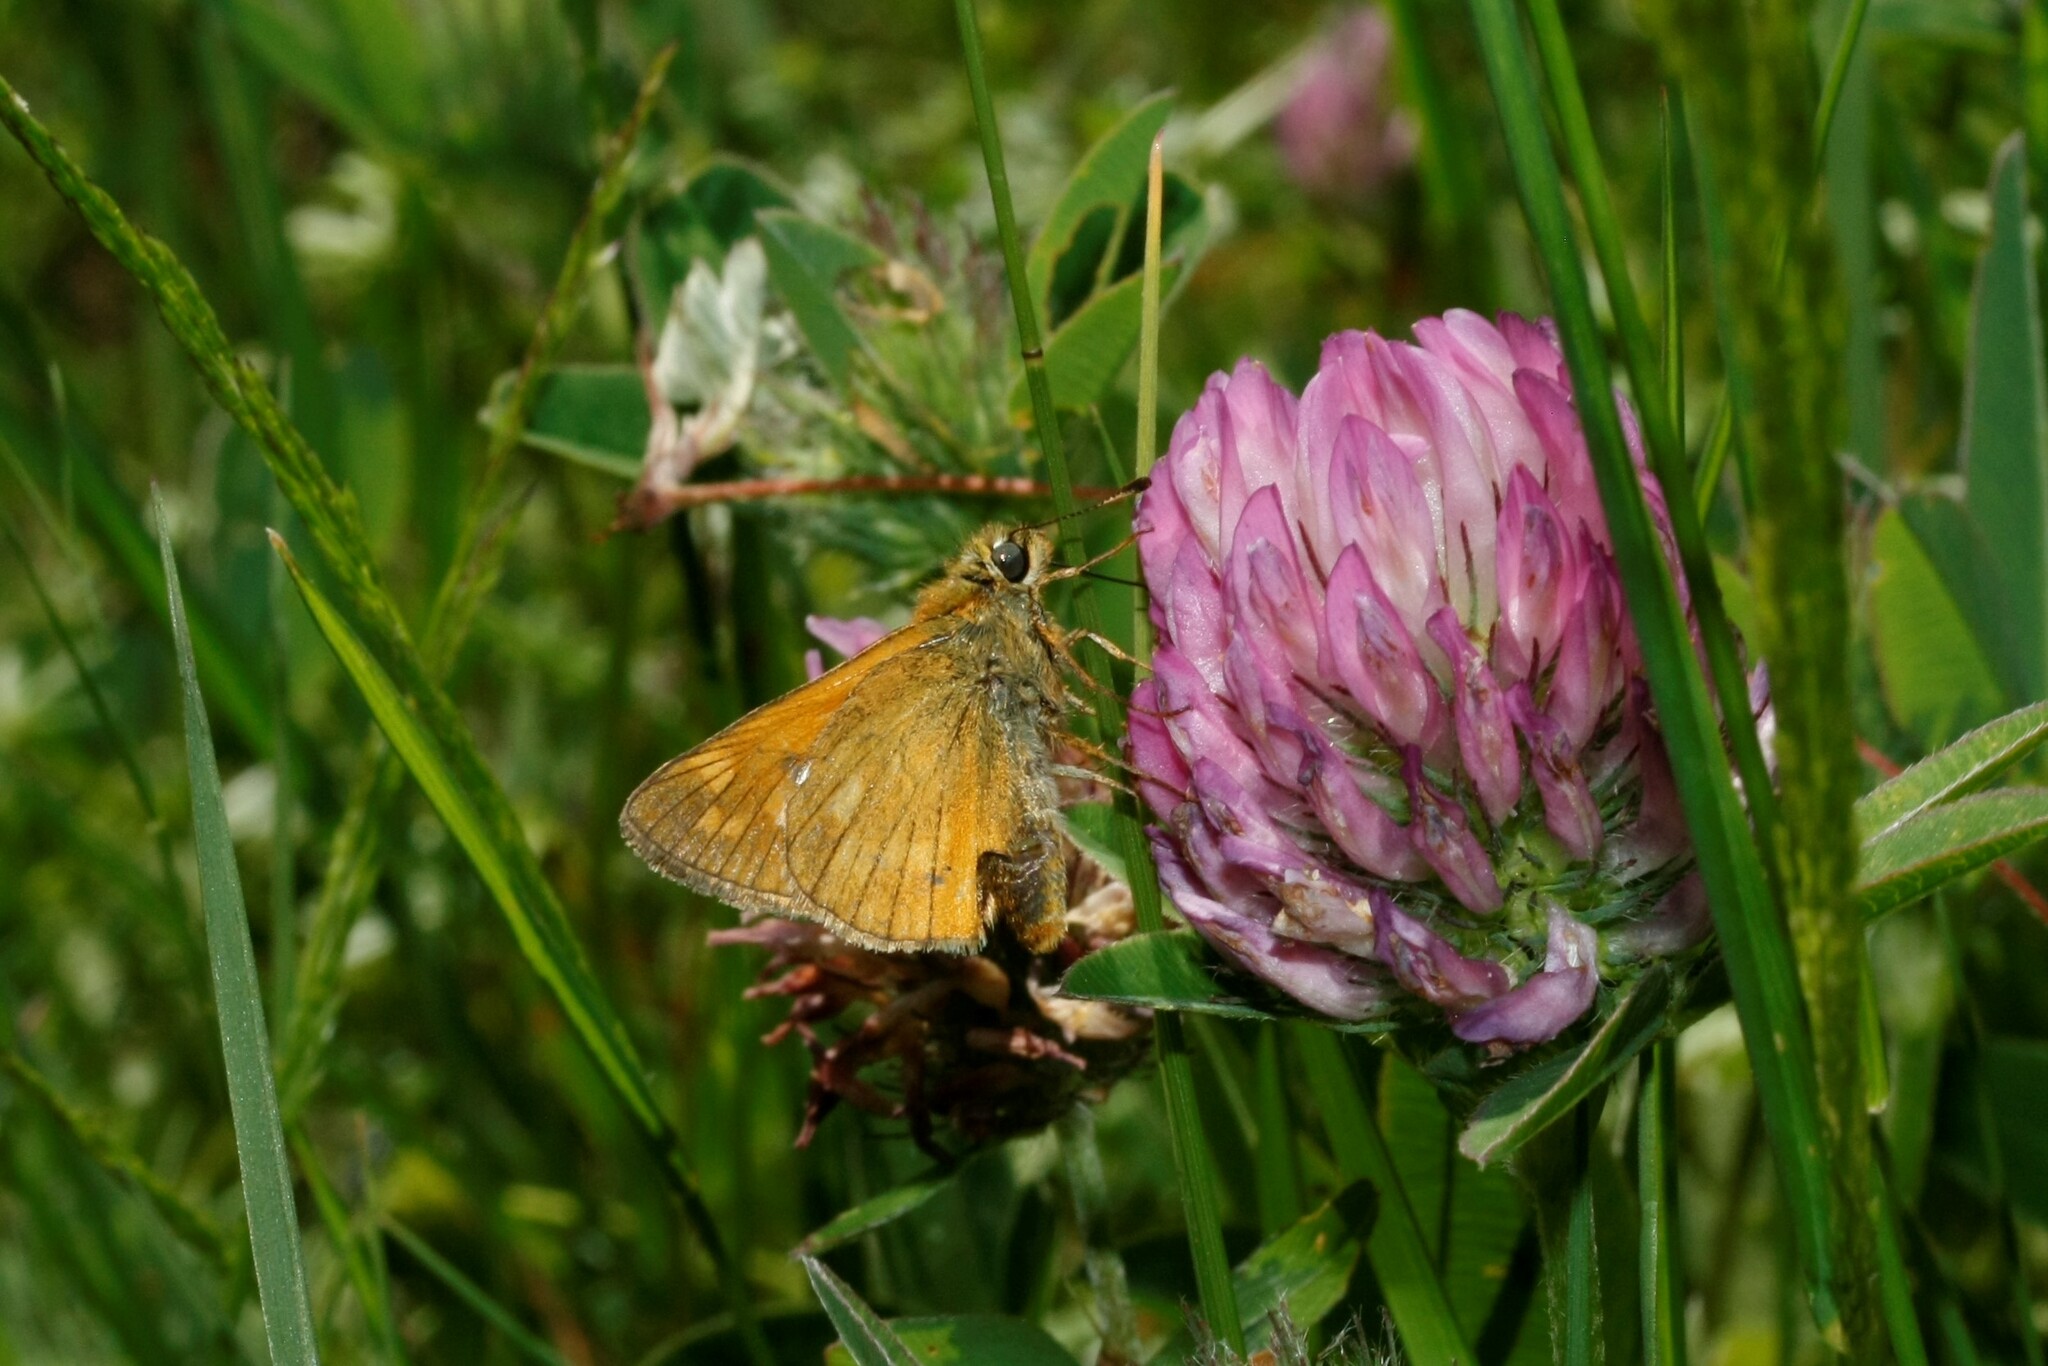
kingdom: Animalia
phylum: Arthropoda
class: Insecta
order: Lepidoptera
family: Hesperiidae
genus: Ochlodes
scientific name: Ochlodes venata
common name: Large skipper
